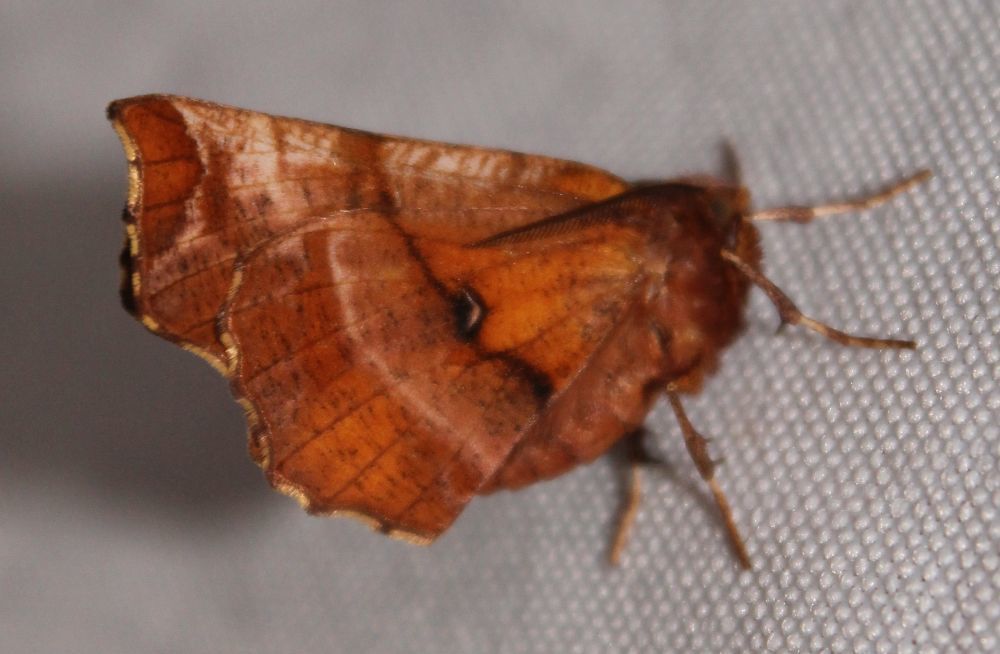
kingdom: Animalia
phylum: Arthropoda
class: Insecta
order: Lepidoptera
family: Geometridae
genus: Selenia
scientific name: Selenia dentaria
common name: Early thorn
